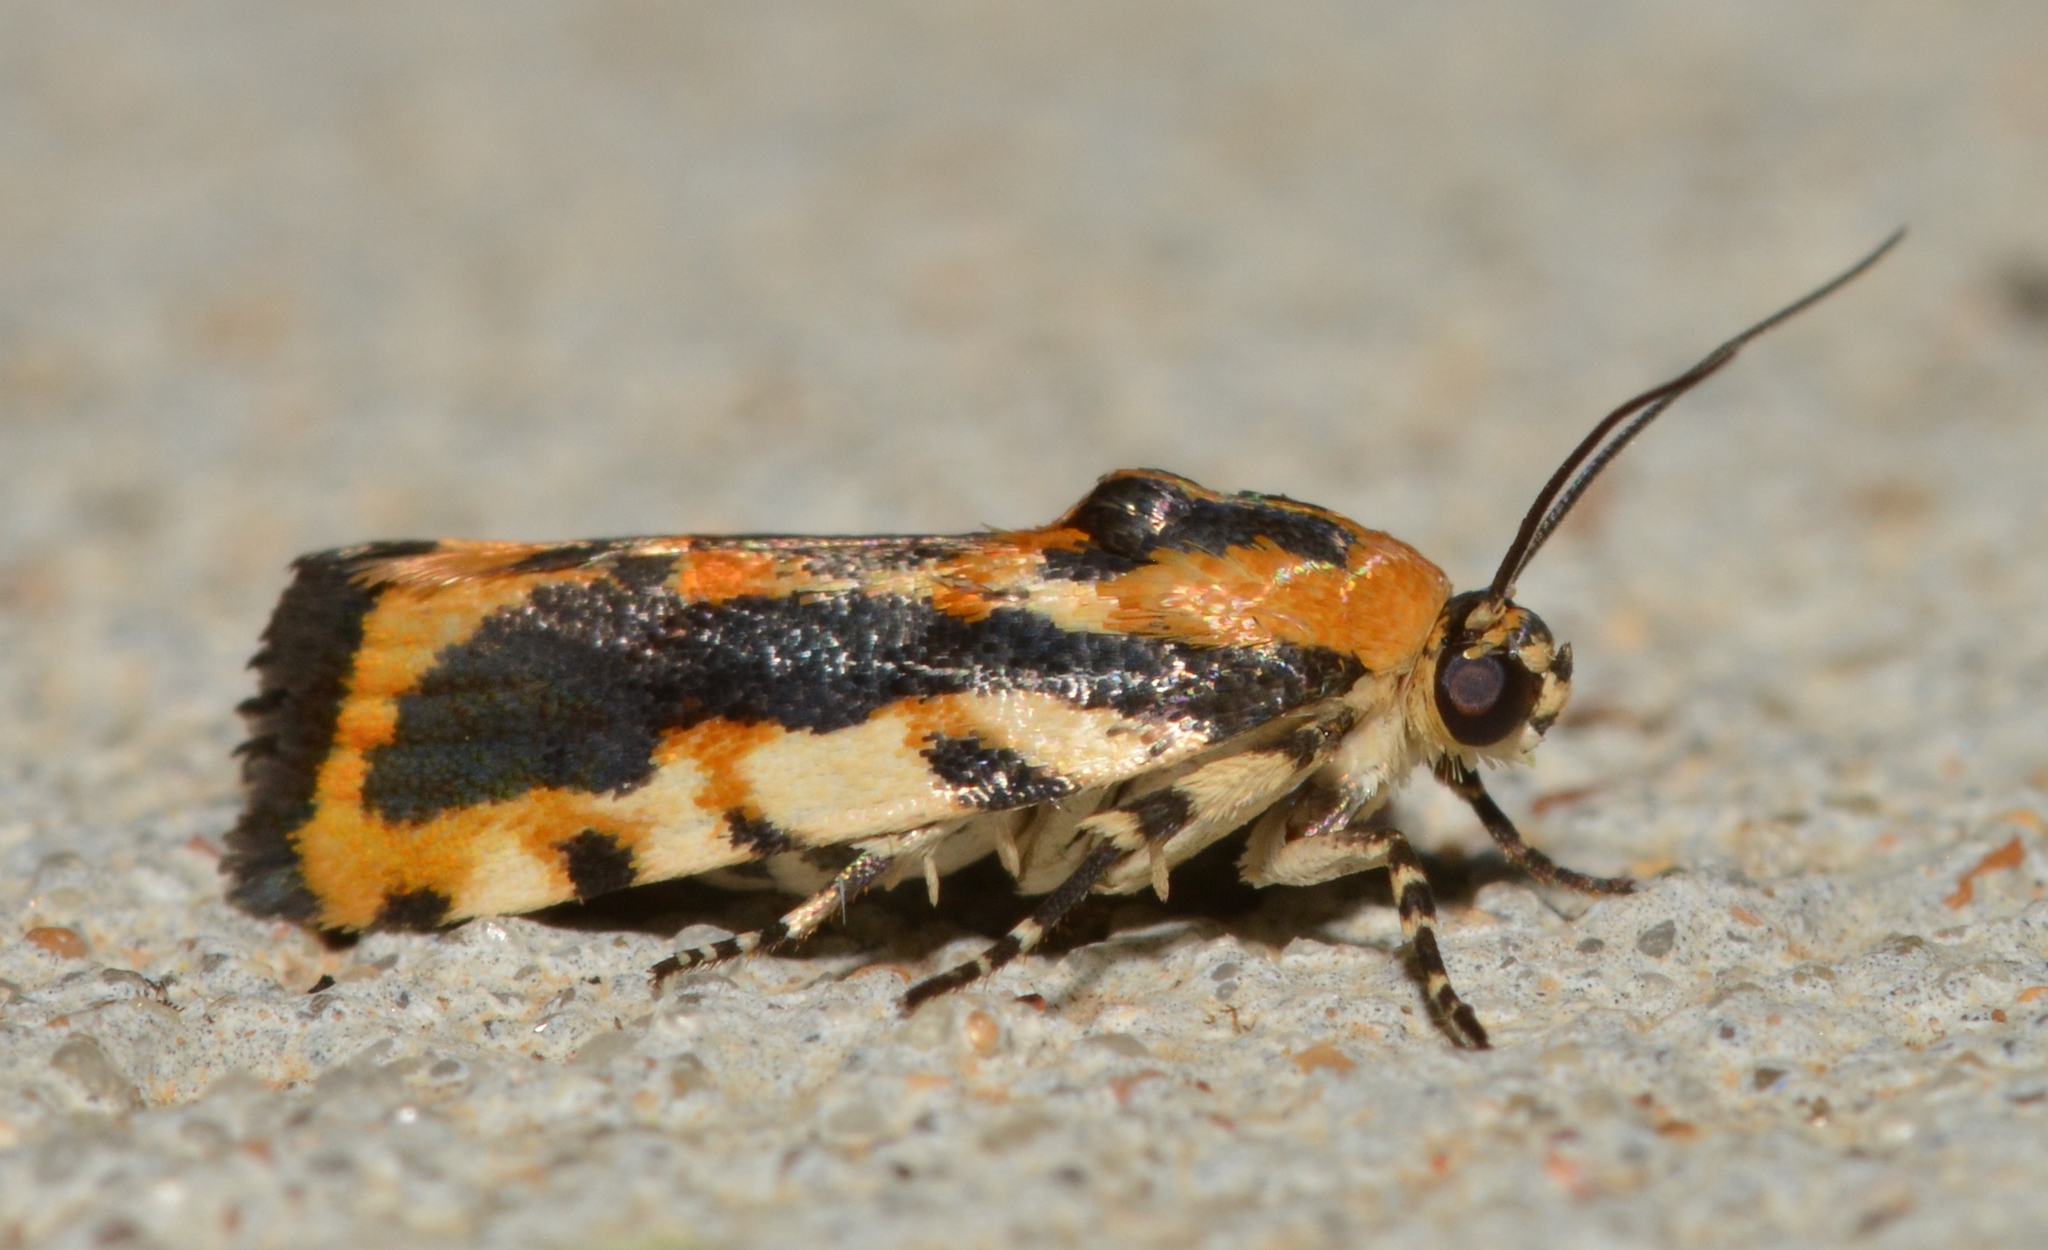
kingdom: Animalia
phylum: Arthropoda
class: Insecta
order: Lepidoptera
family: Noctuidae
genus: Acontia
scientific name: Acontia leo
